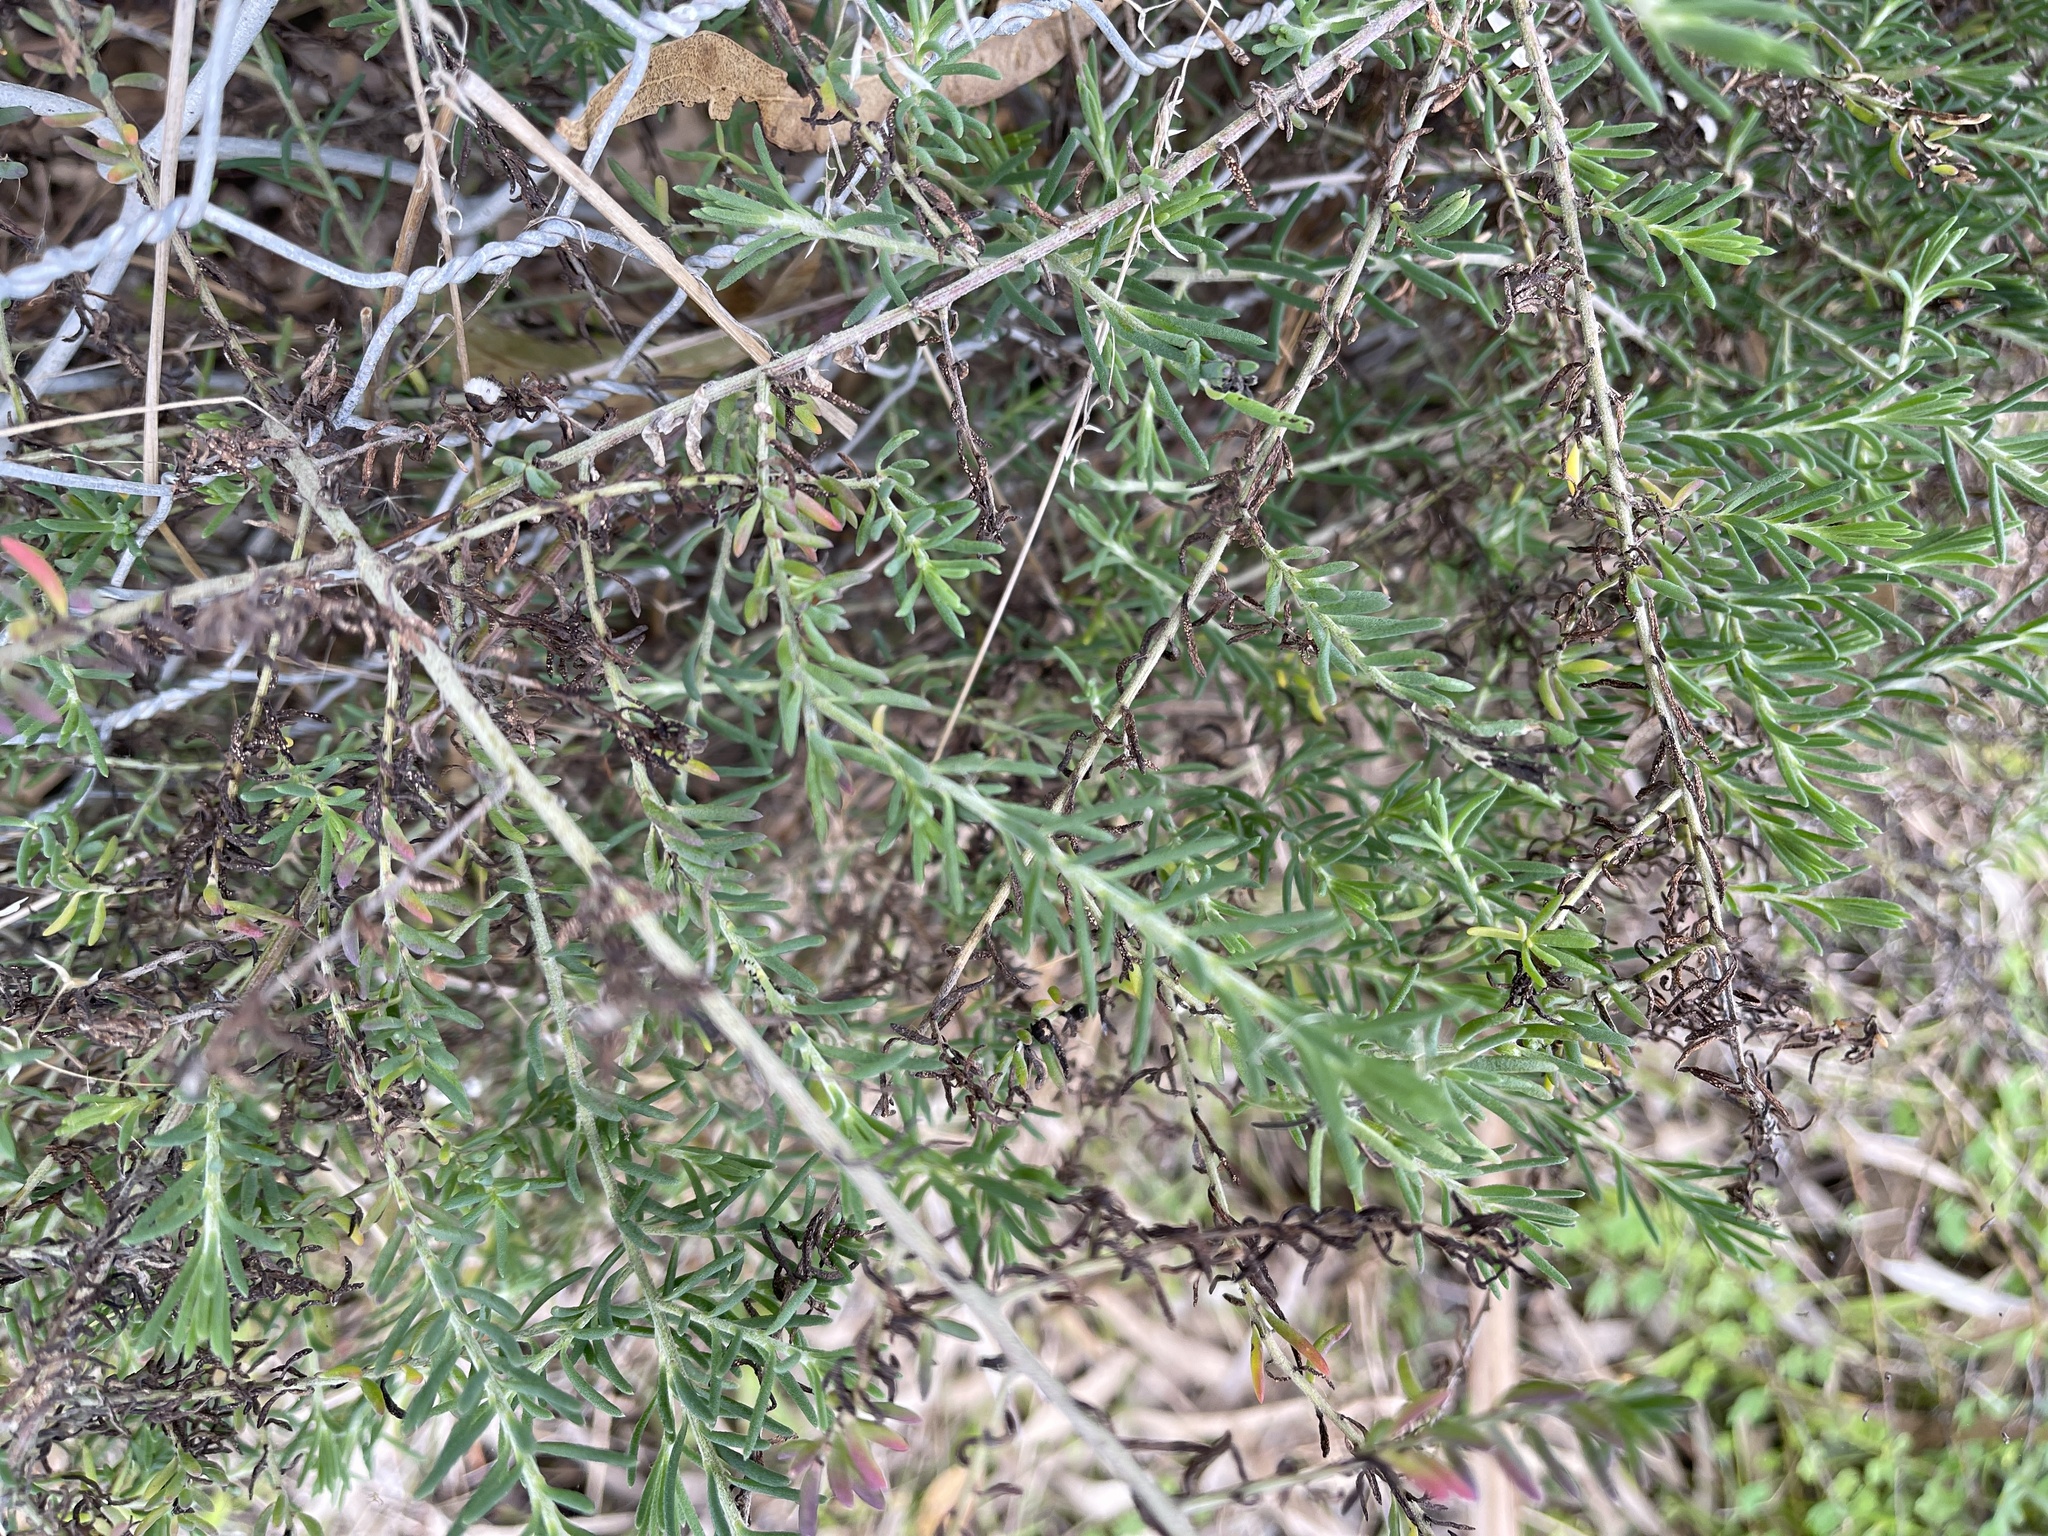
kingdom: Plantae
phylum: Tracheophyta
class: Magnoliopsida
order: Caryophyllales
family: Amaranthaceae
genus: Enchylaena
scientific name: Enchylaena tomentosa
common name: Ruby saltbush
